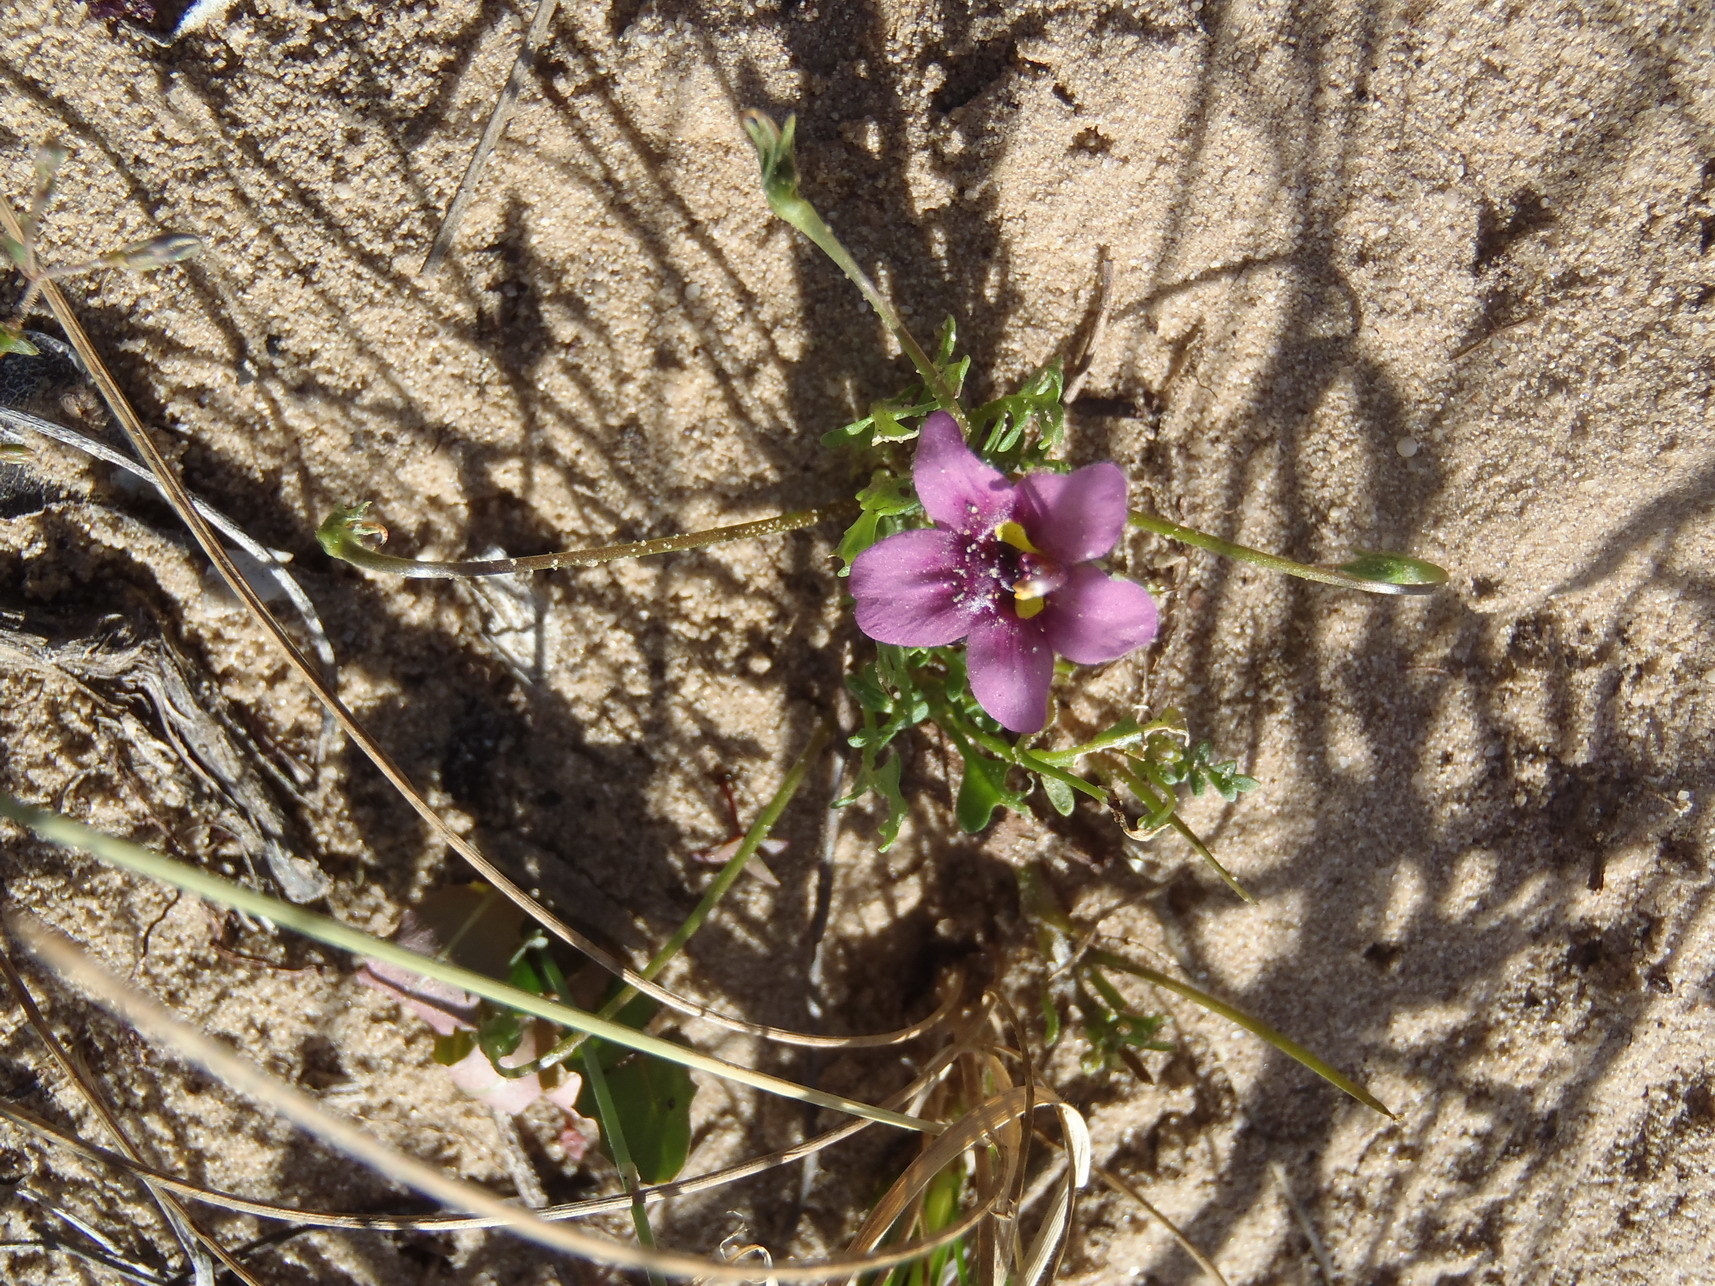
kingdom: Plantae
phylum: Tracheophyta
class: Magnoliopsida
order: Lamiales
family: Scrophulariaceae
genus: Diascia
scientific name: Diascia capensis
